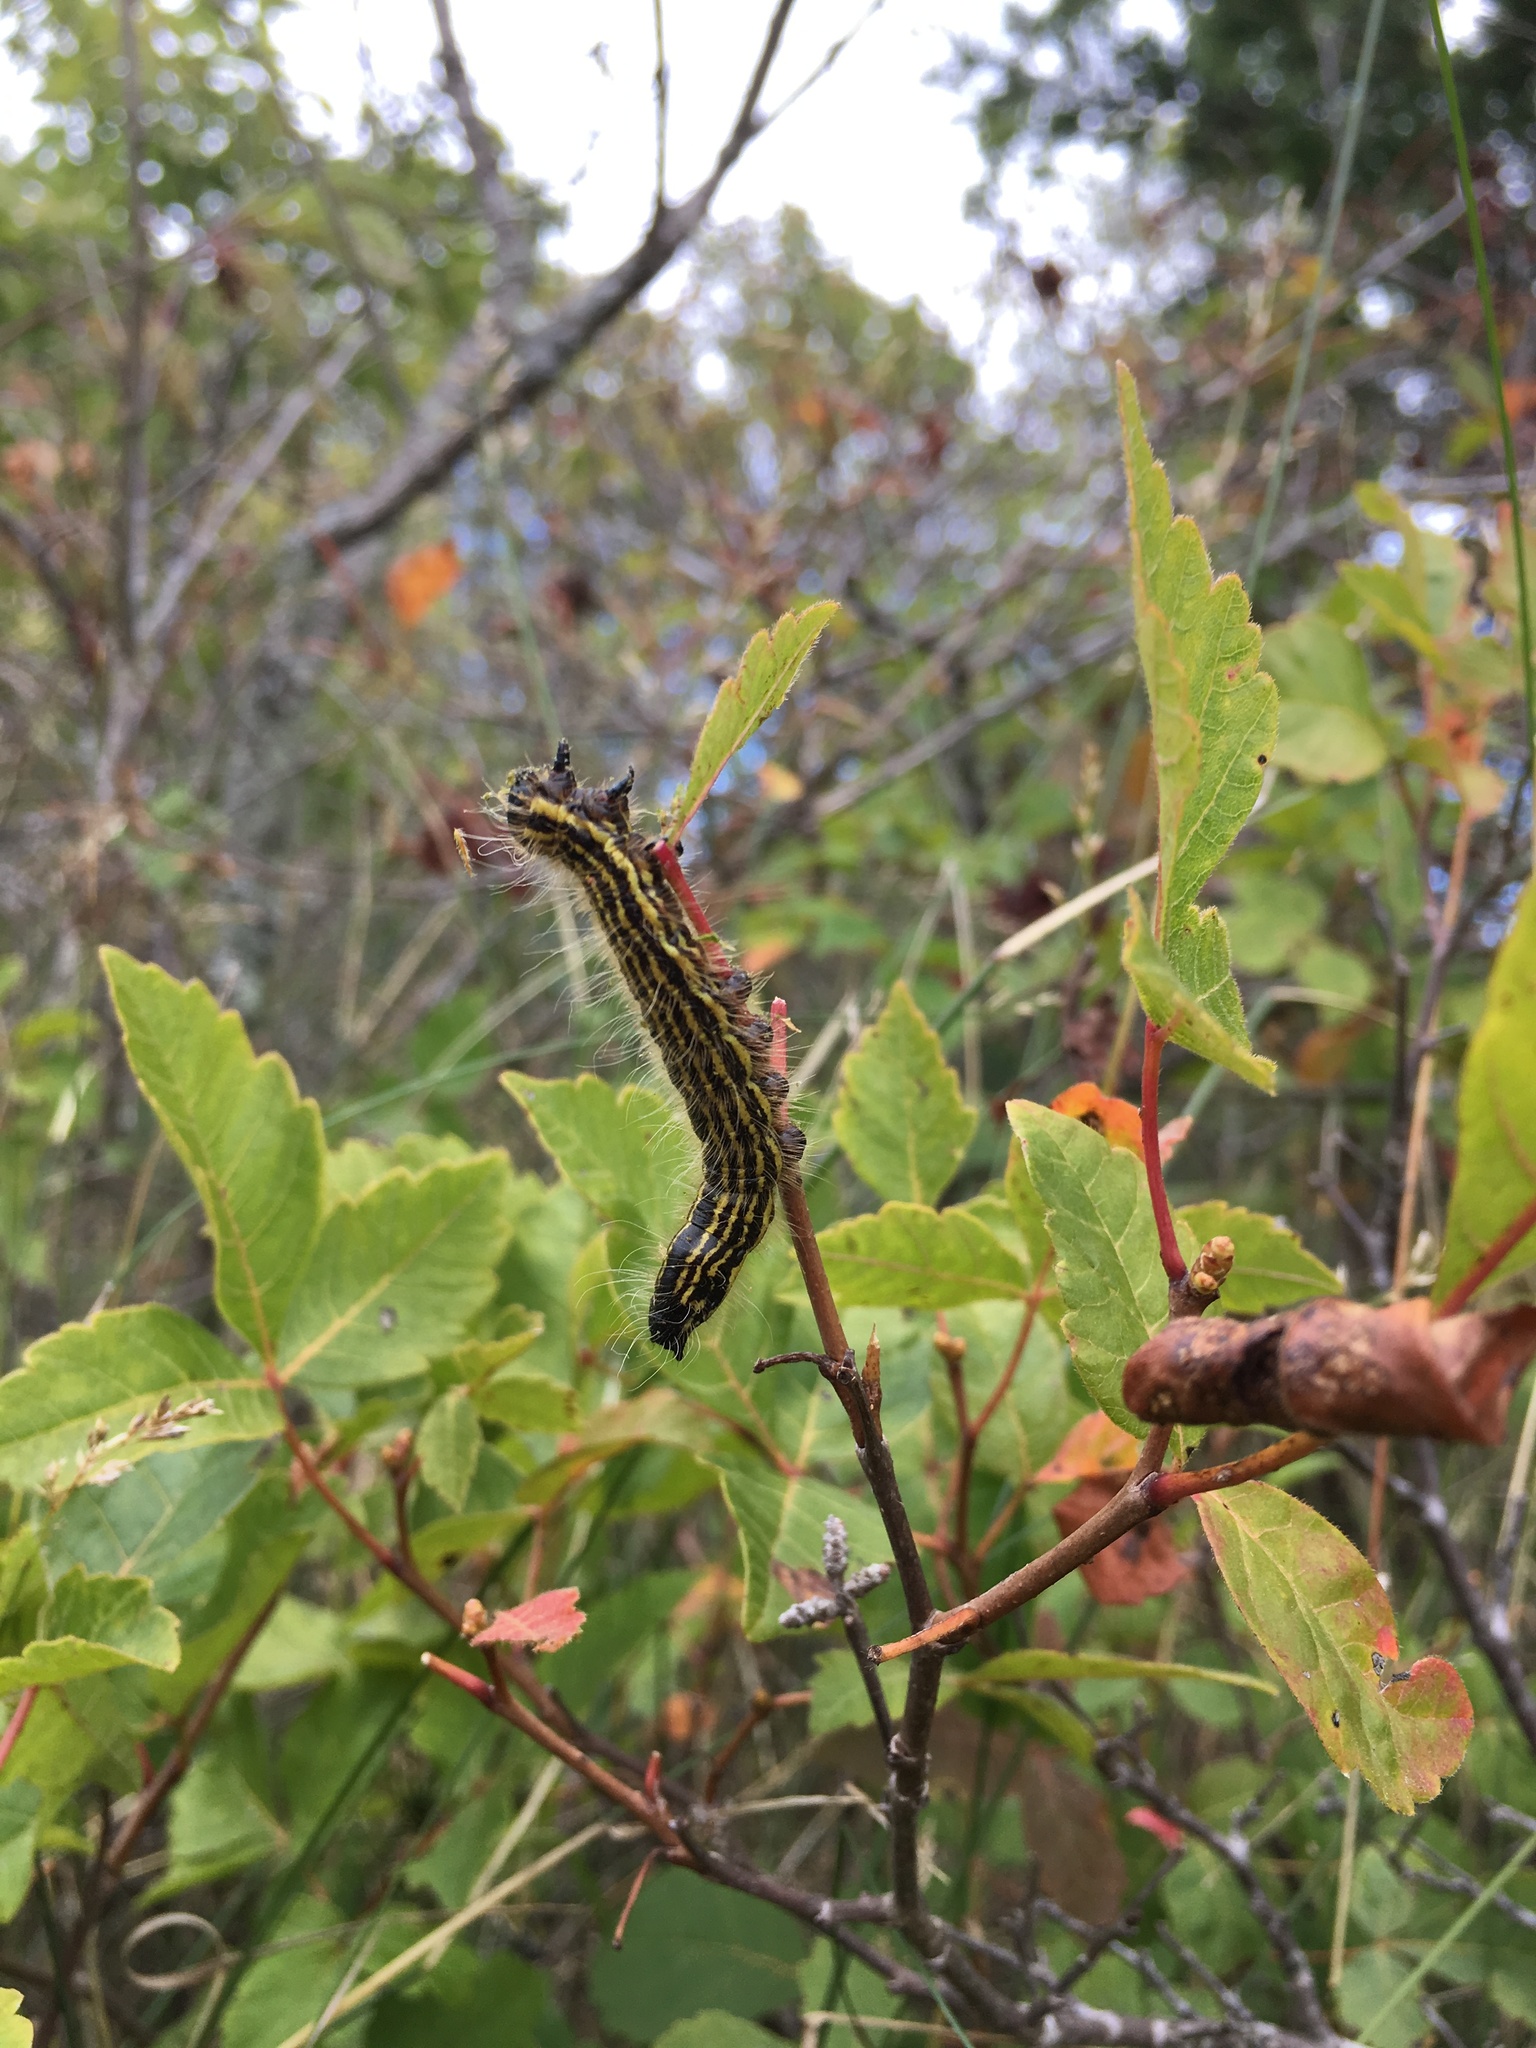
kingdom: Animalia
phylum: Arthropoda
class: Insecta
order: Lepidoptera
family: Notodontidae
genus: Datana
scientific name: Datana perspicua
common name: Spotted datana
